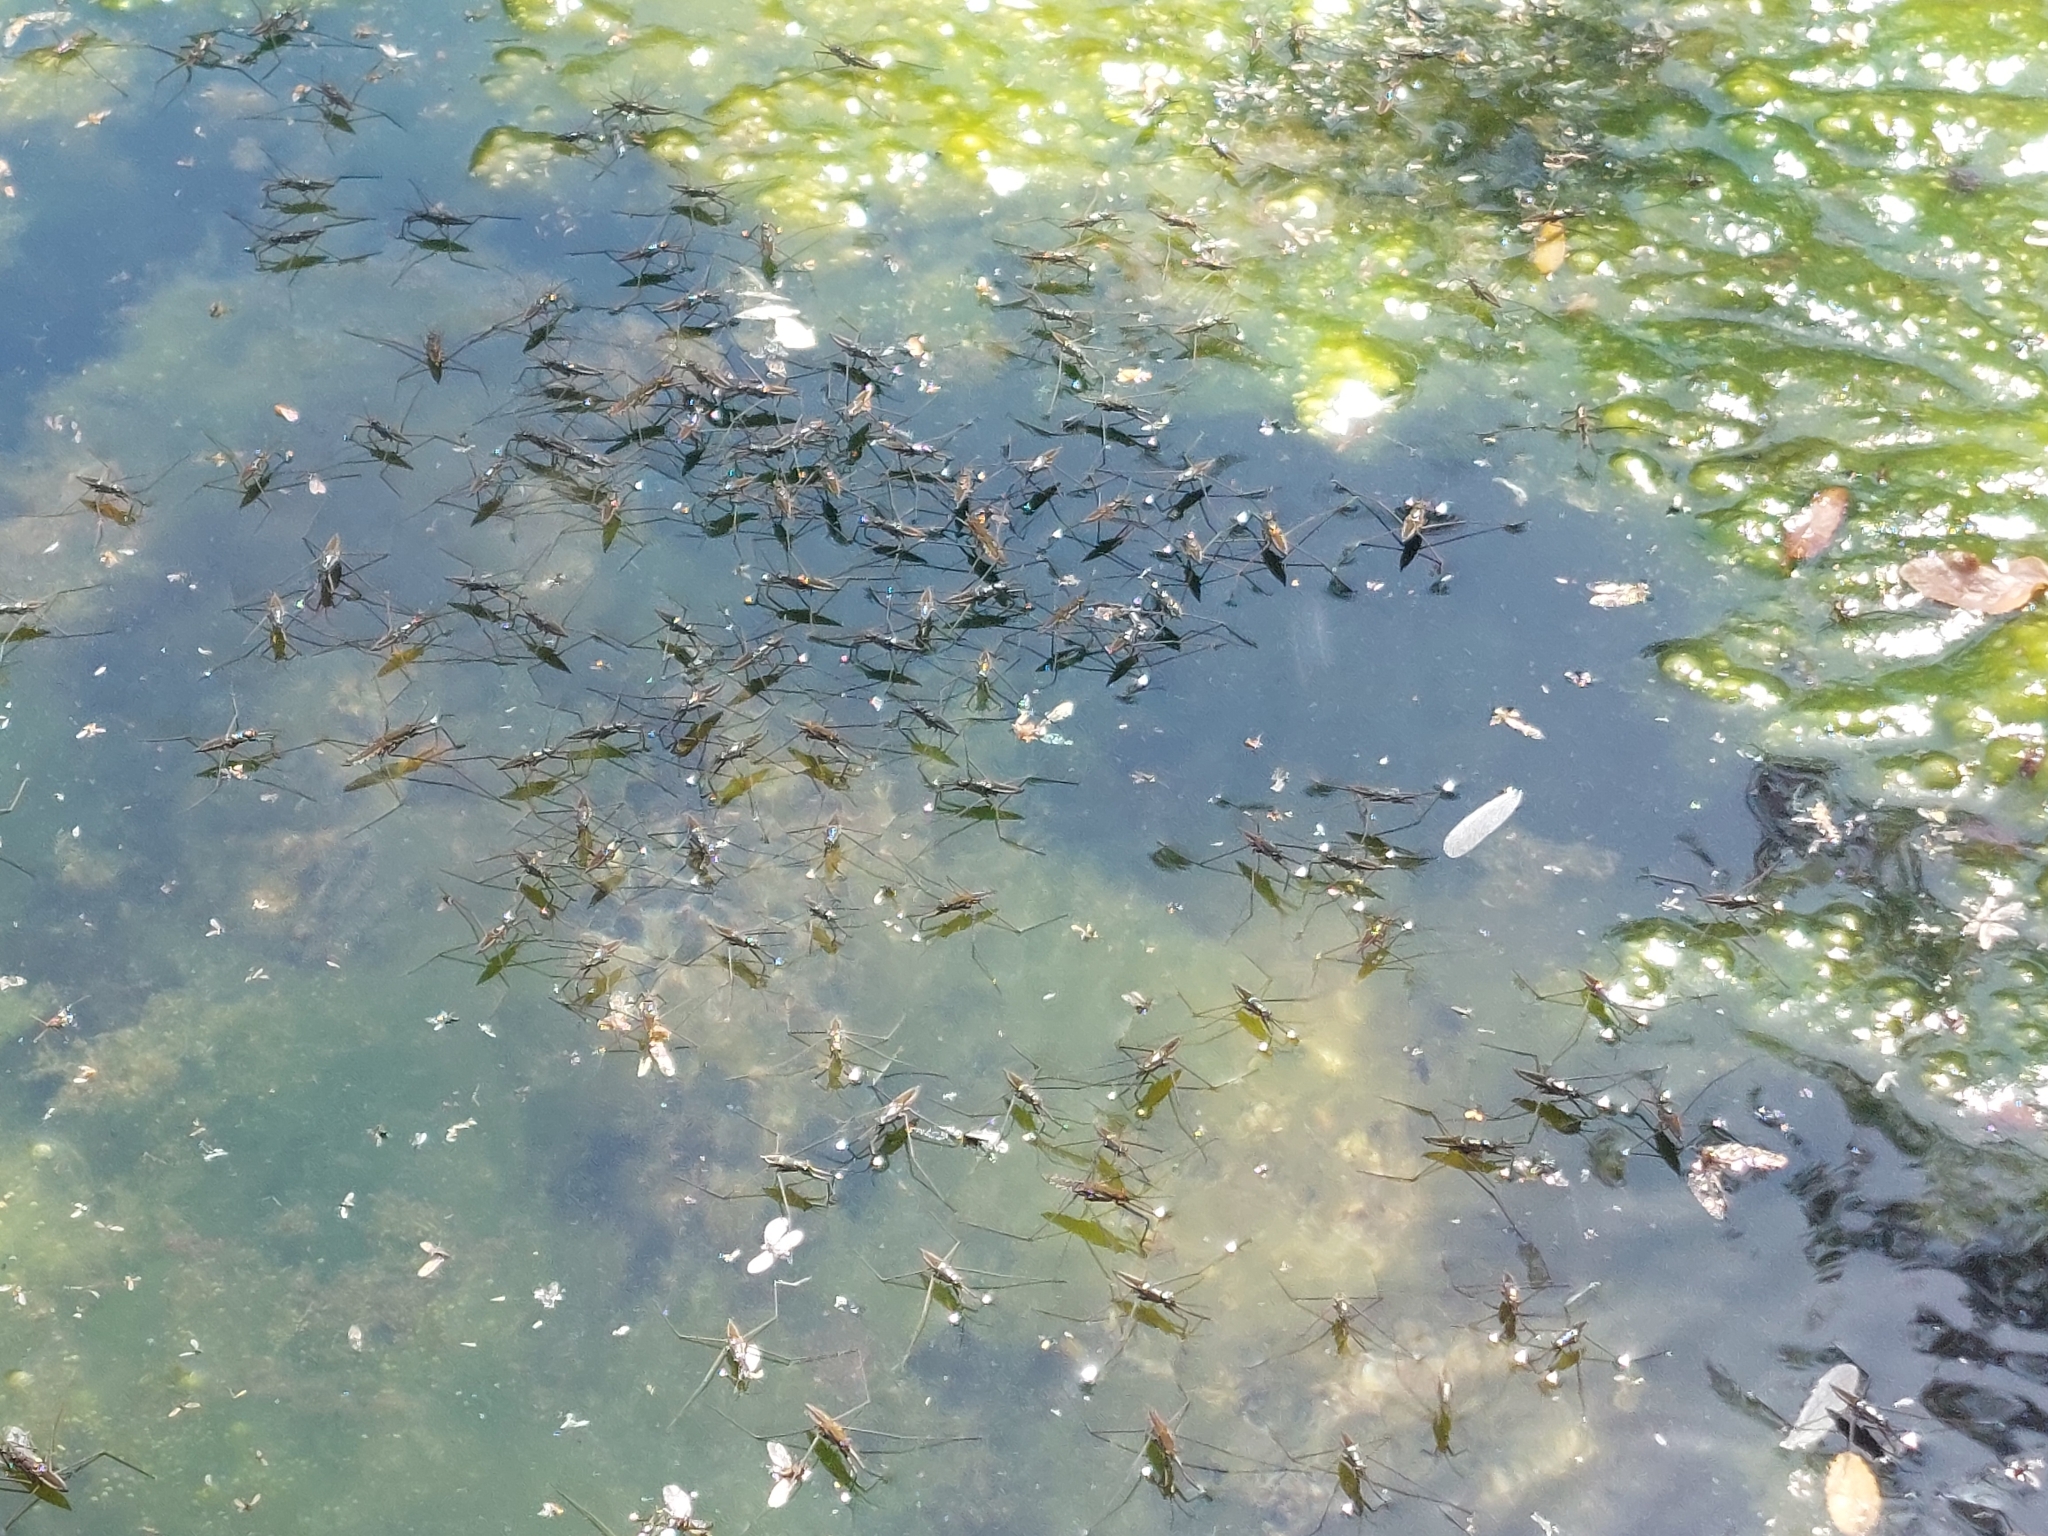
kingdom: Animalia
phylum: Arthropoda
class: Insecta
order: Hemiptera
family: Gerridae
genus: Aquarius
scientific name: Aquarius chilensis
